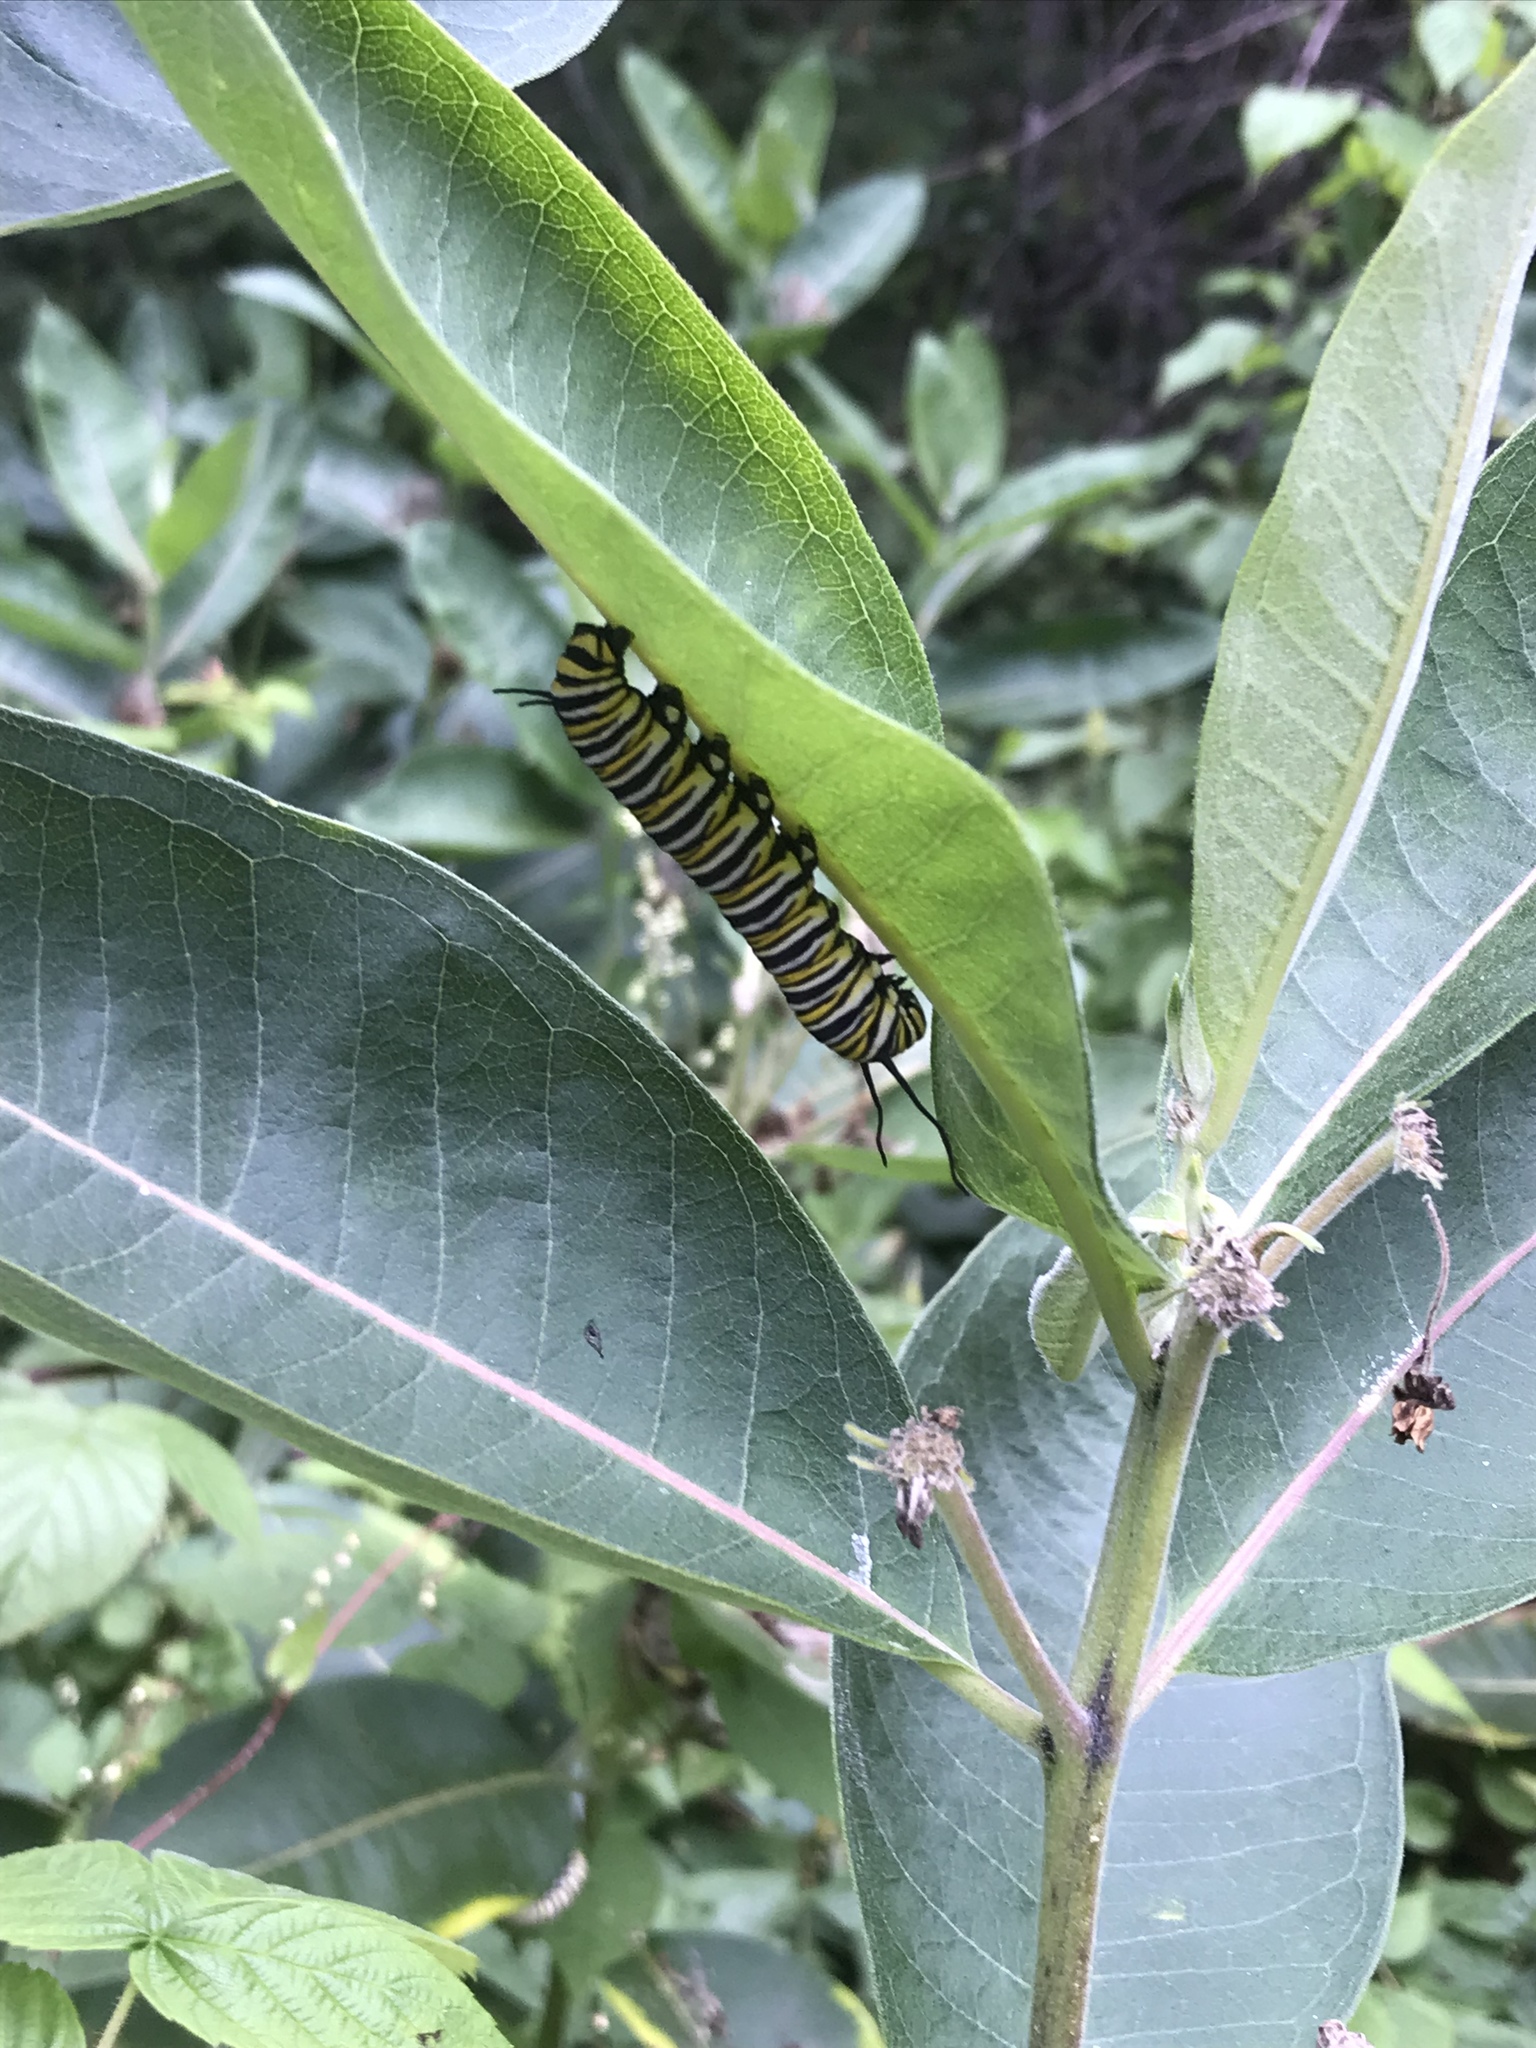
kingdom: Animalia
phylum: Arthropoda
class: Insecta
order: Lepidoptera
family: Nymphalidae
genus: Danaus
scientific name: Danaus plexippus
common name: Monarch
